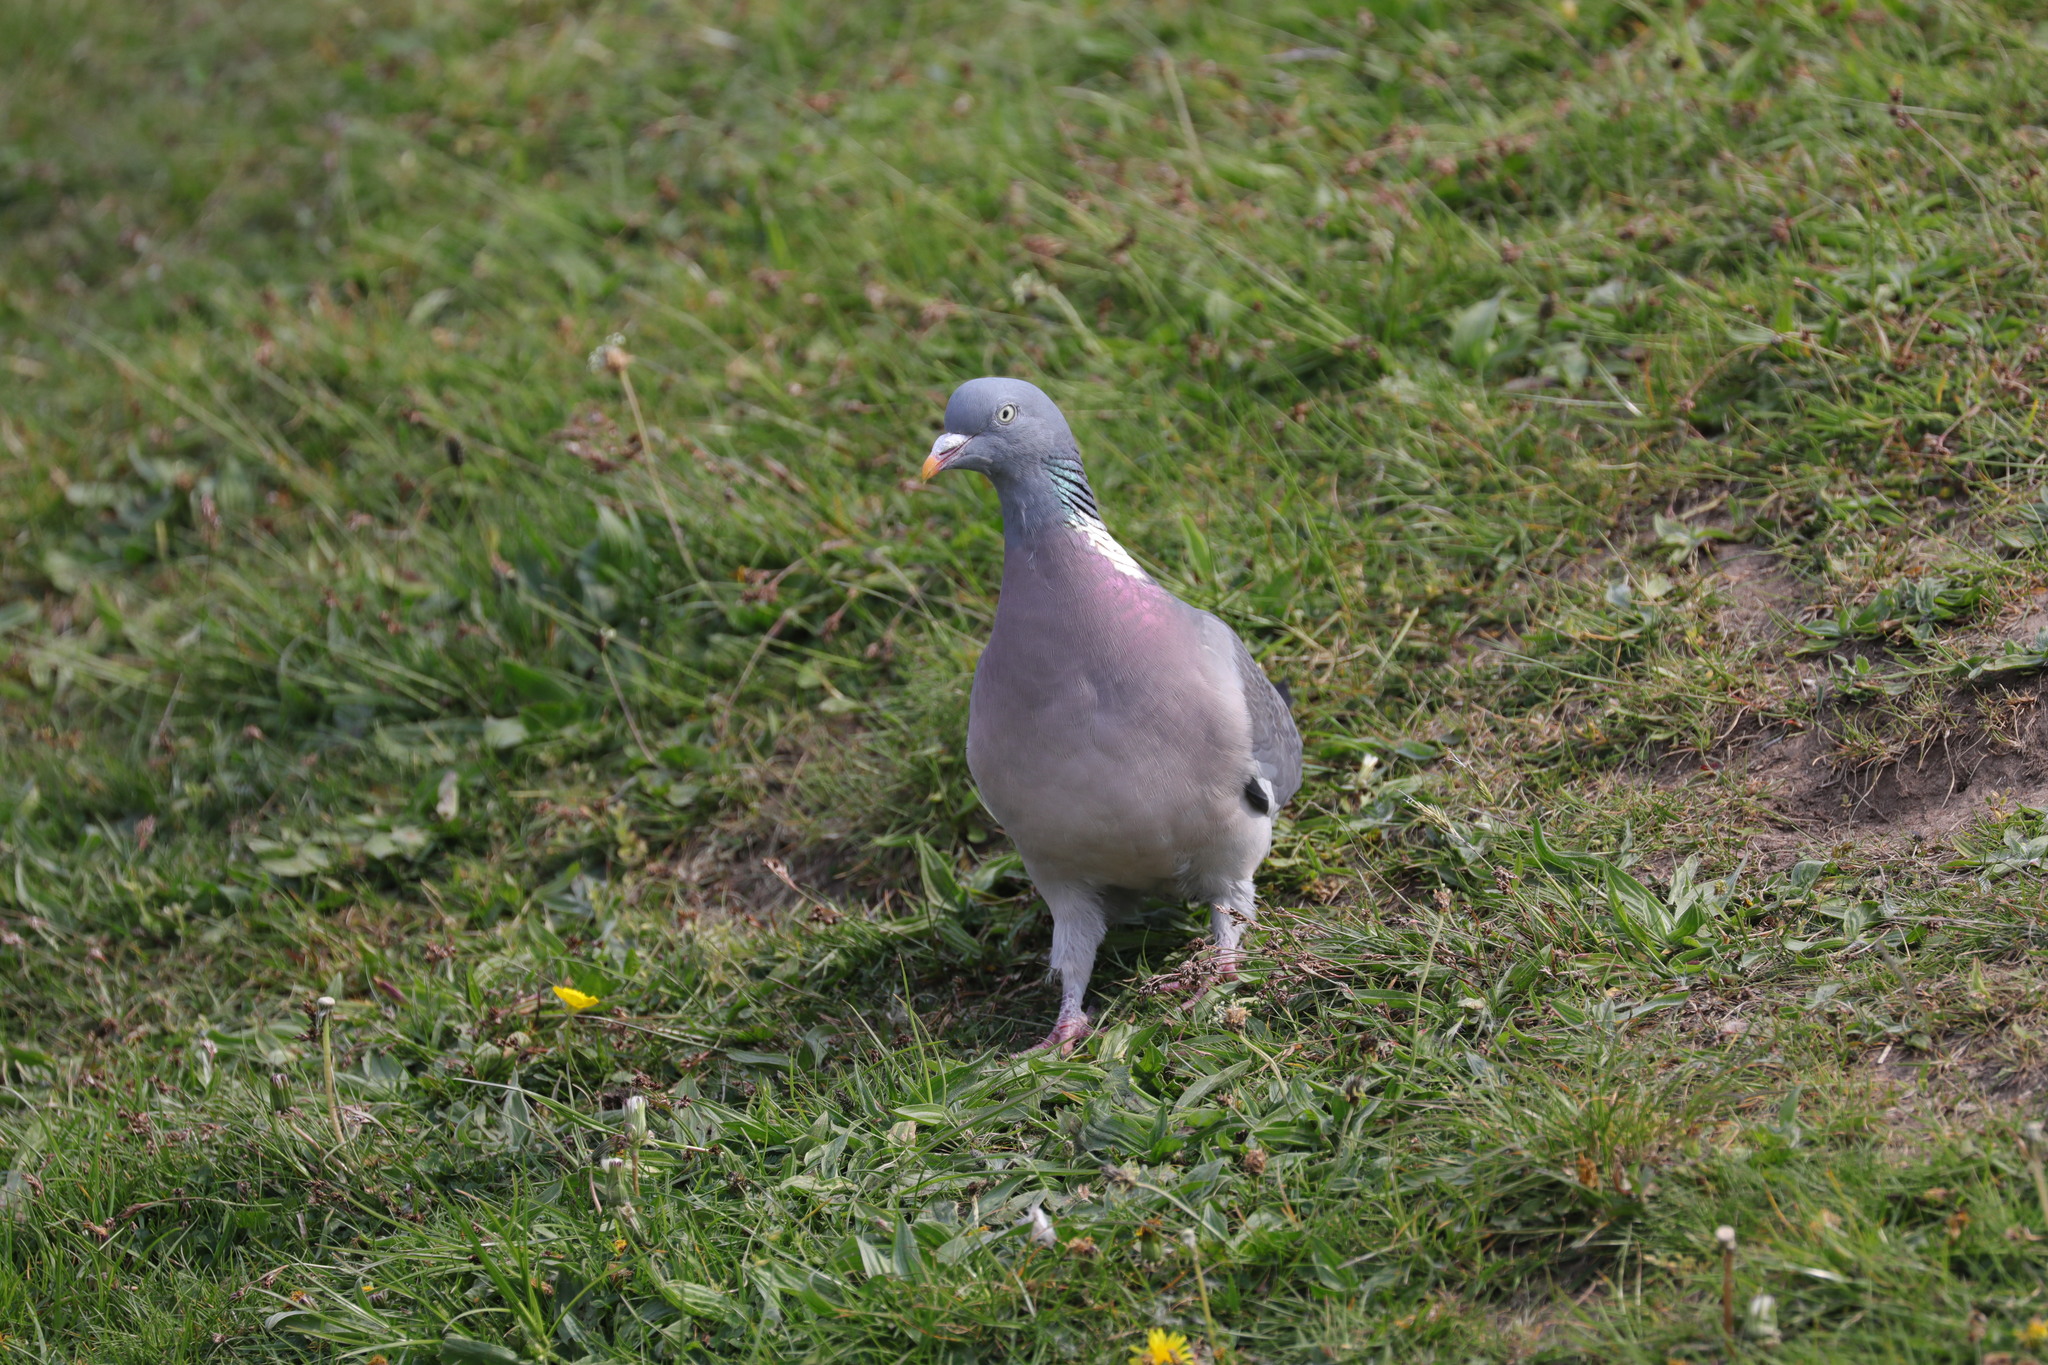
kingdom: Animalia
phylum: Chordata
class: Aves
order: Columbiformes
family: Columbidae
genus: Columba
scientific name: Columba palumbus
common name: Common wood pigeon
